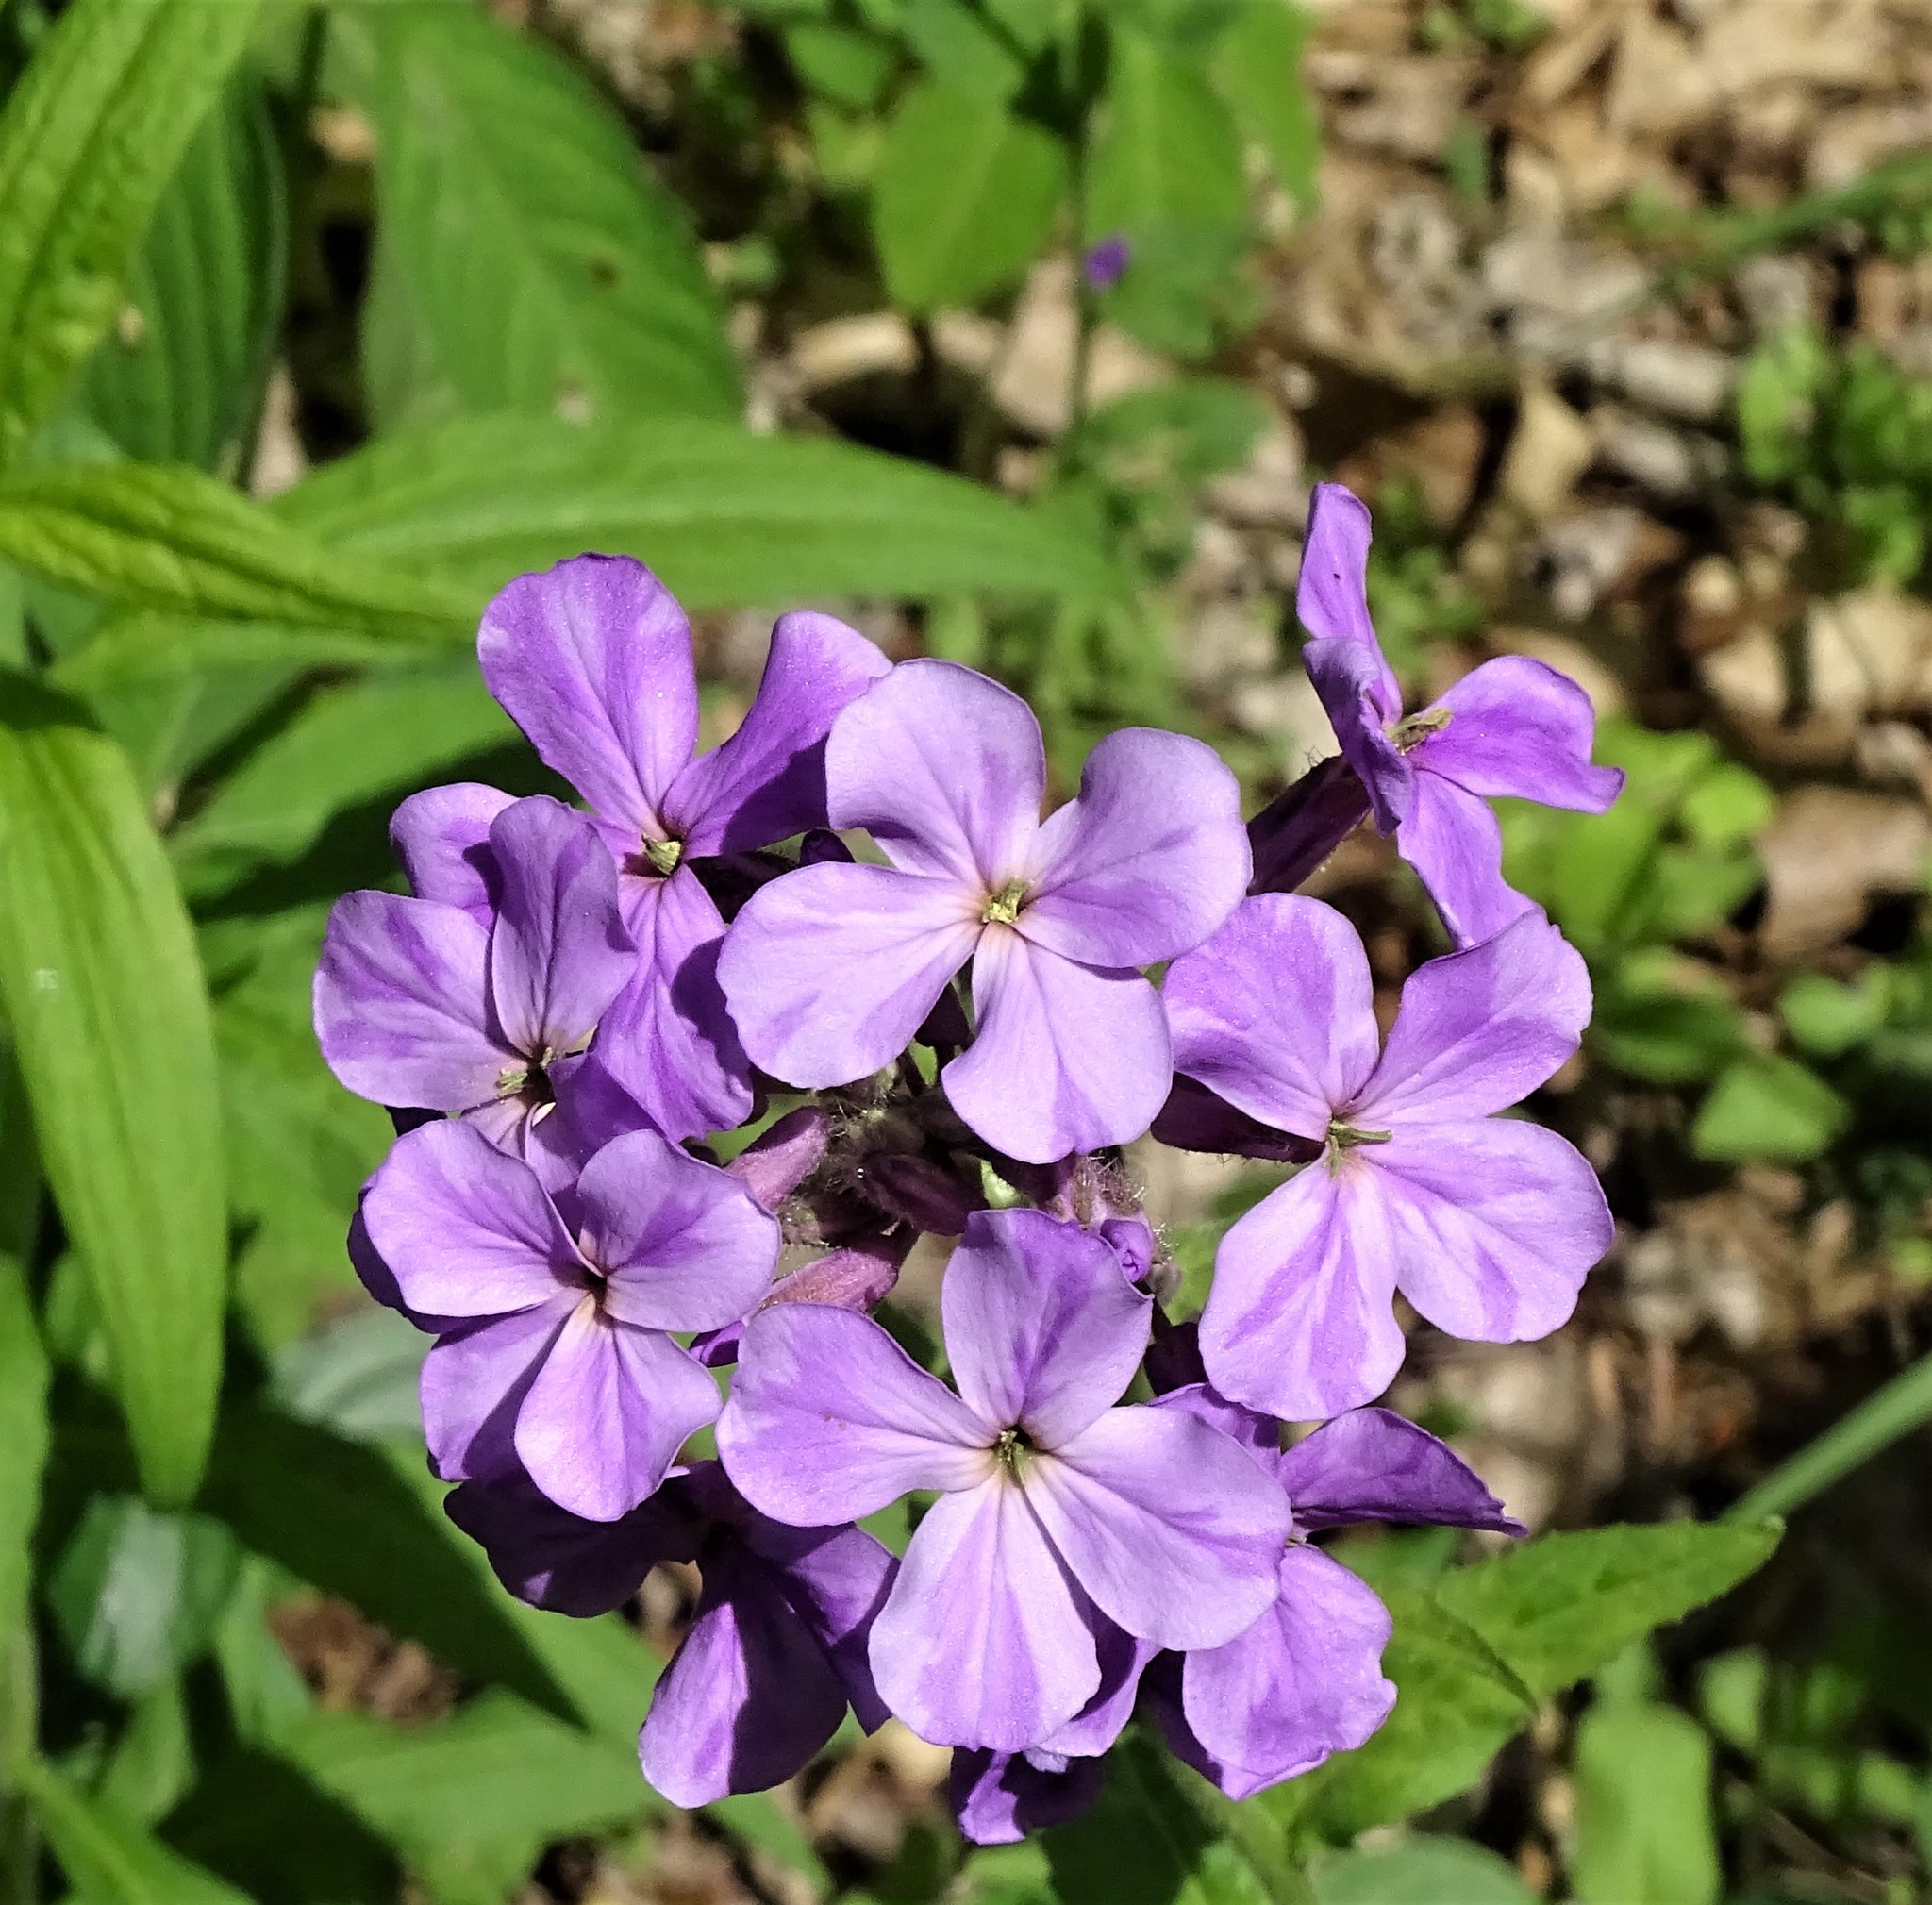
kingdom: Plantae
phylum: Tracheophyta
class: Magnoliopsida
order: Brassicales
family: Brassicaceae
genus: Hesperis
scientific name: Hesperis matronalis
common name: Dame's-violet
